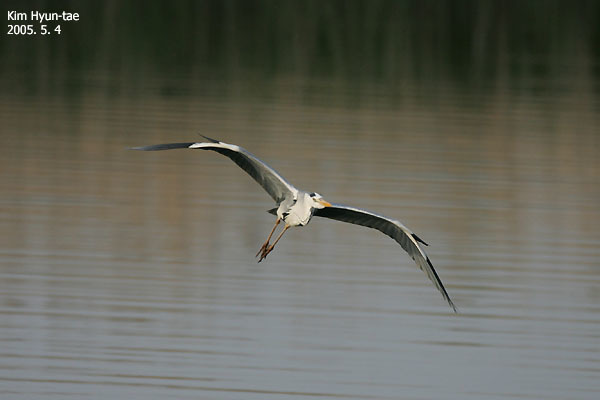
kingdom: Animalia
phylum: Chordata
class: Aves
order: Pelecaniformes
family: Ardeidae
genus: Ardea
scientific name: Ardea cinerea
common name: Grey heron
